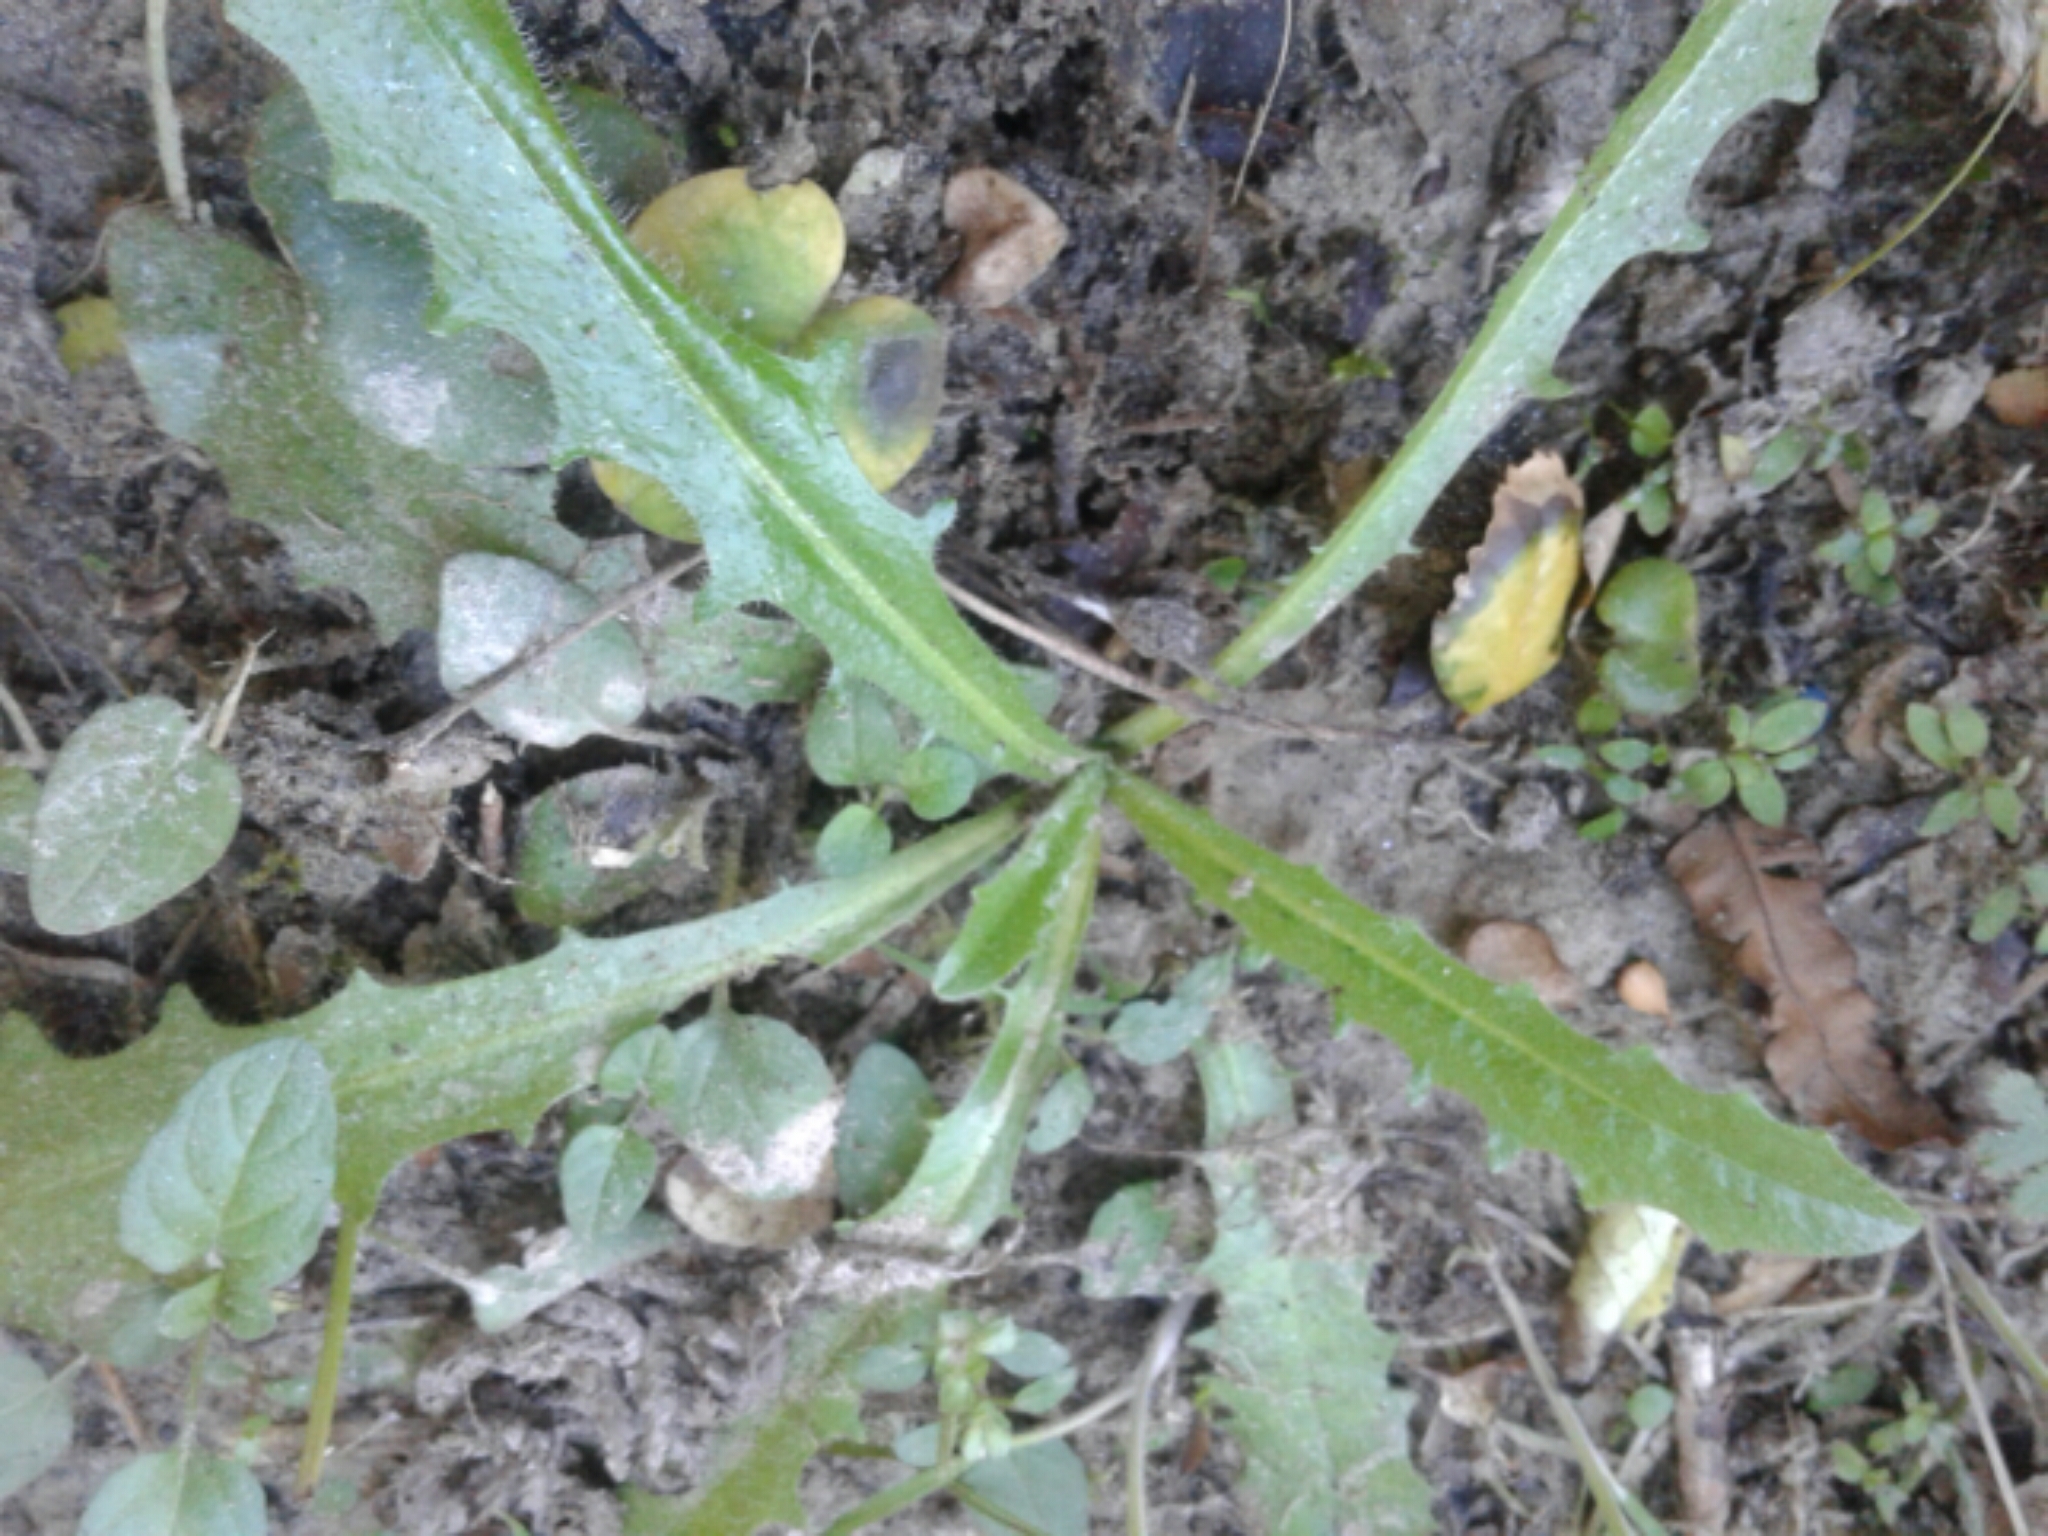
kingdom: Plantae
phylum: Tracheophyta
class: Magnoliopsida
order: Asterales
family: Asteraceae
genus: Hypochaeris
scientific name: Hypochaeris radicata
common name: Flatweed
